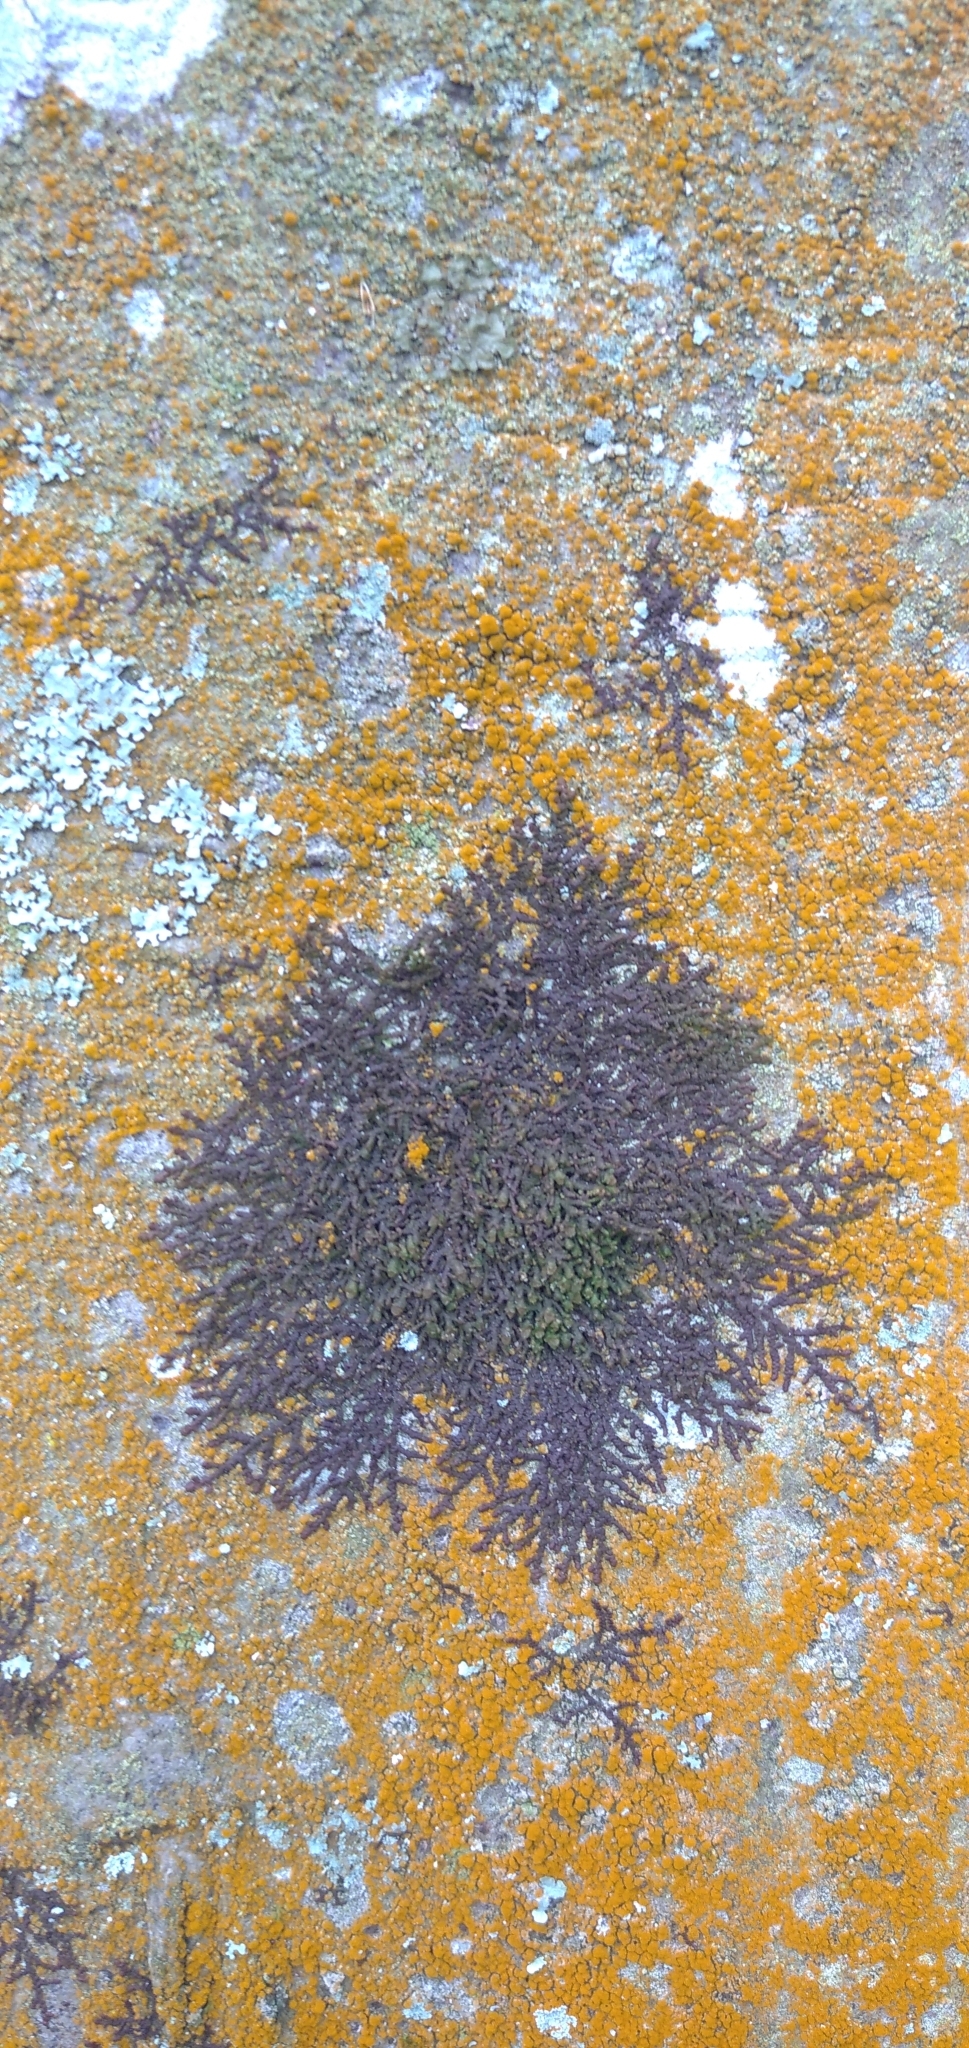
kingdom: Plantae
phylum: Marchantiophyta
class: Jungermanniopsida
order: Porellales
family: Frullaniaceae
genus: Frullania
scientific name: Frullania dilatata
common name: Dilated scalewort
